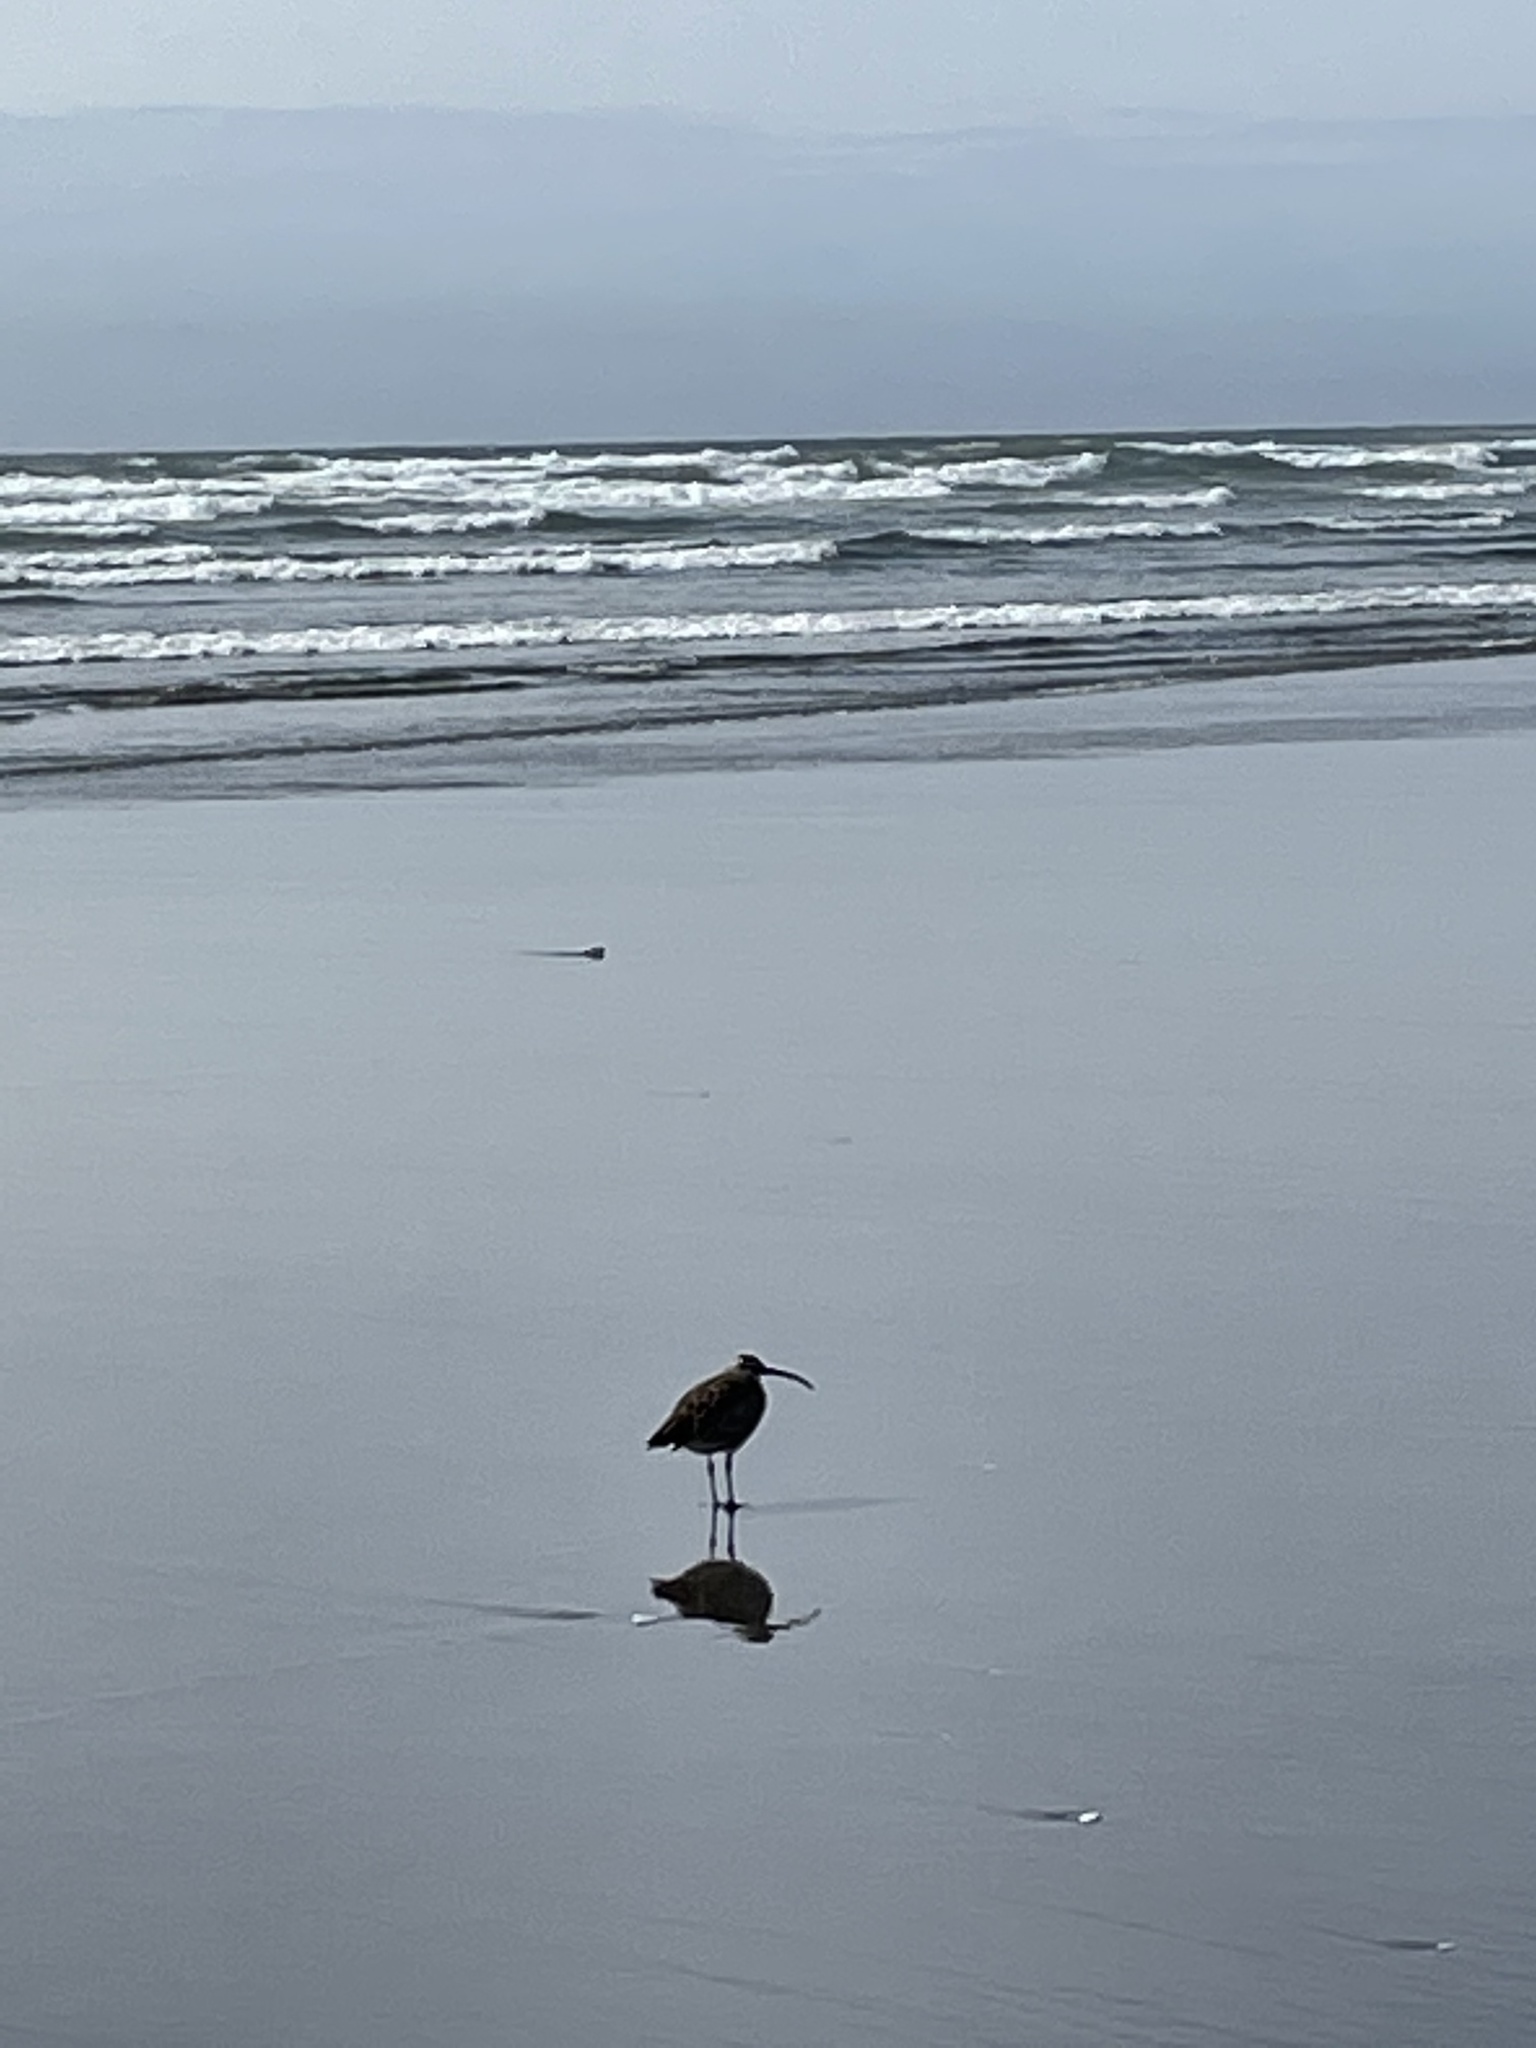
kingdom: Animalia
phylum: Chordata
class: Aves
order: Charadriiformes
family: Scolopacidae
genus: Numenius
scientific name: Numenius phaeopus
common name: Whimbrel
